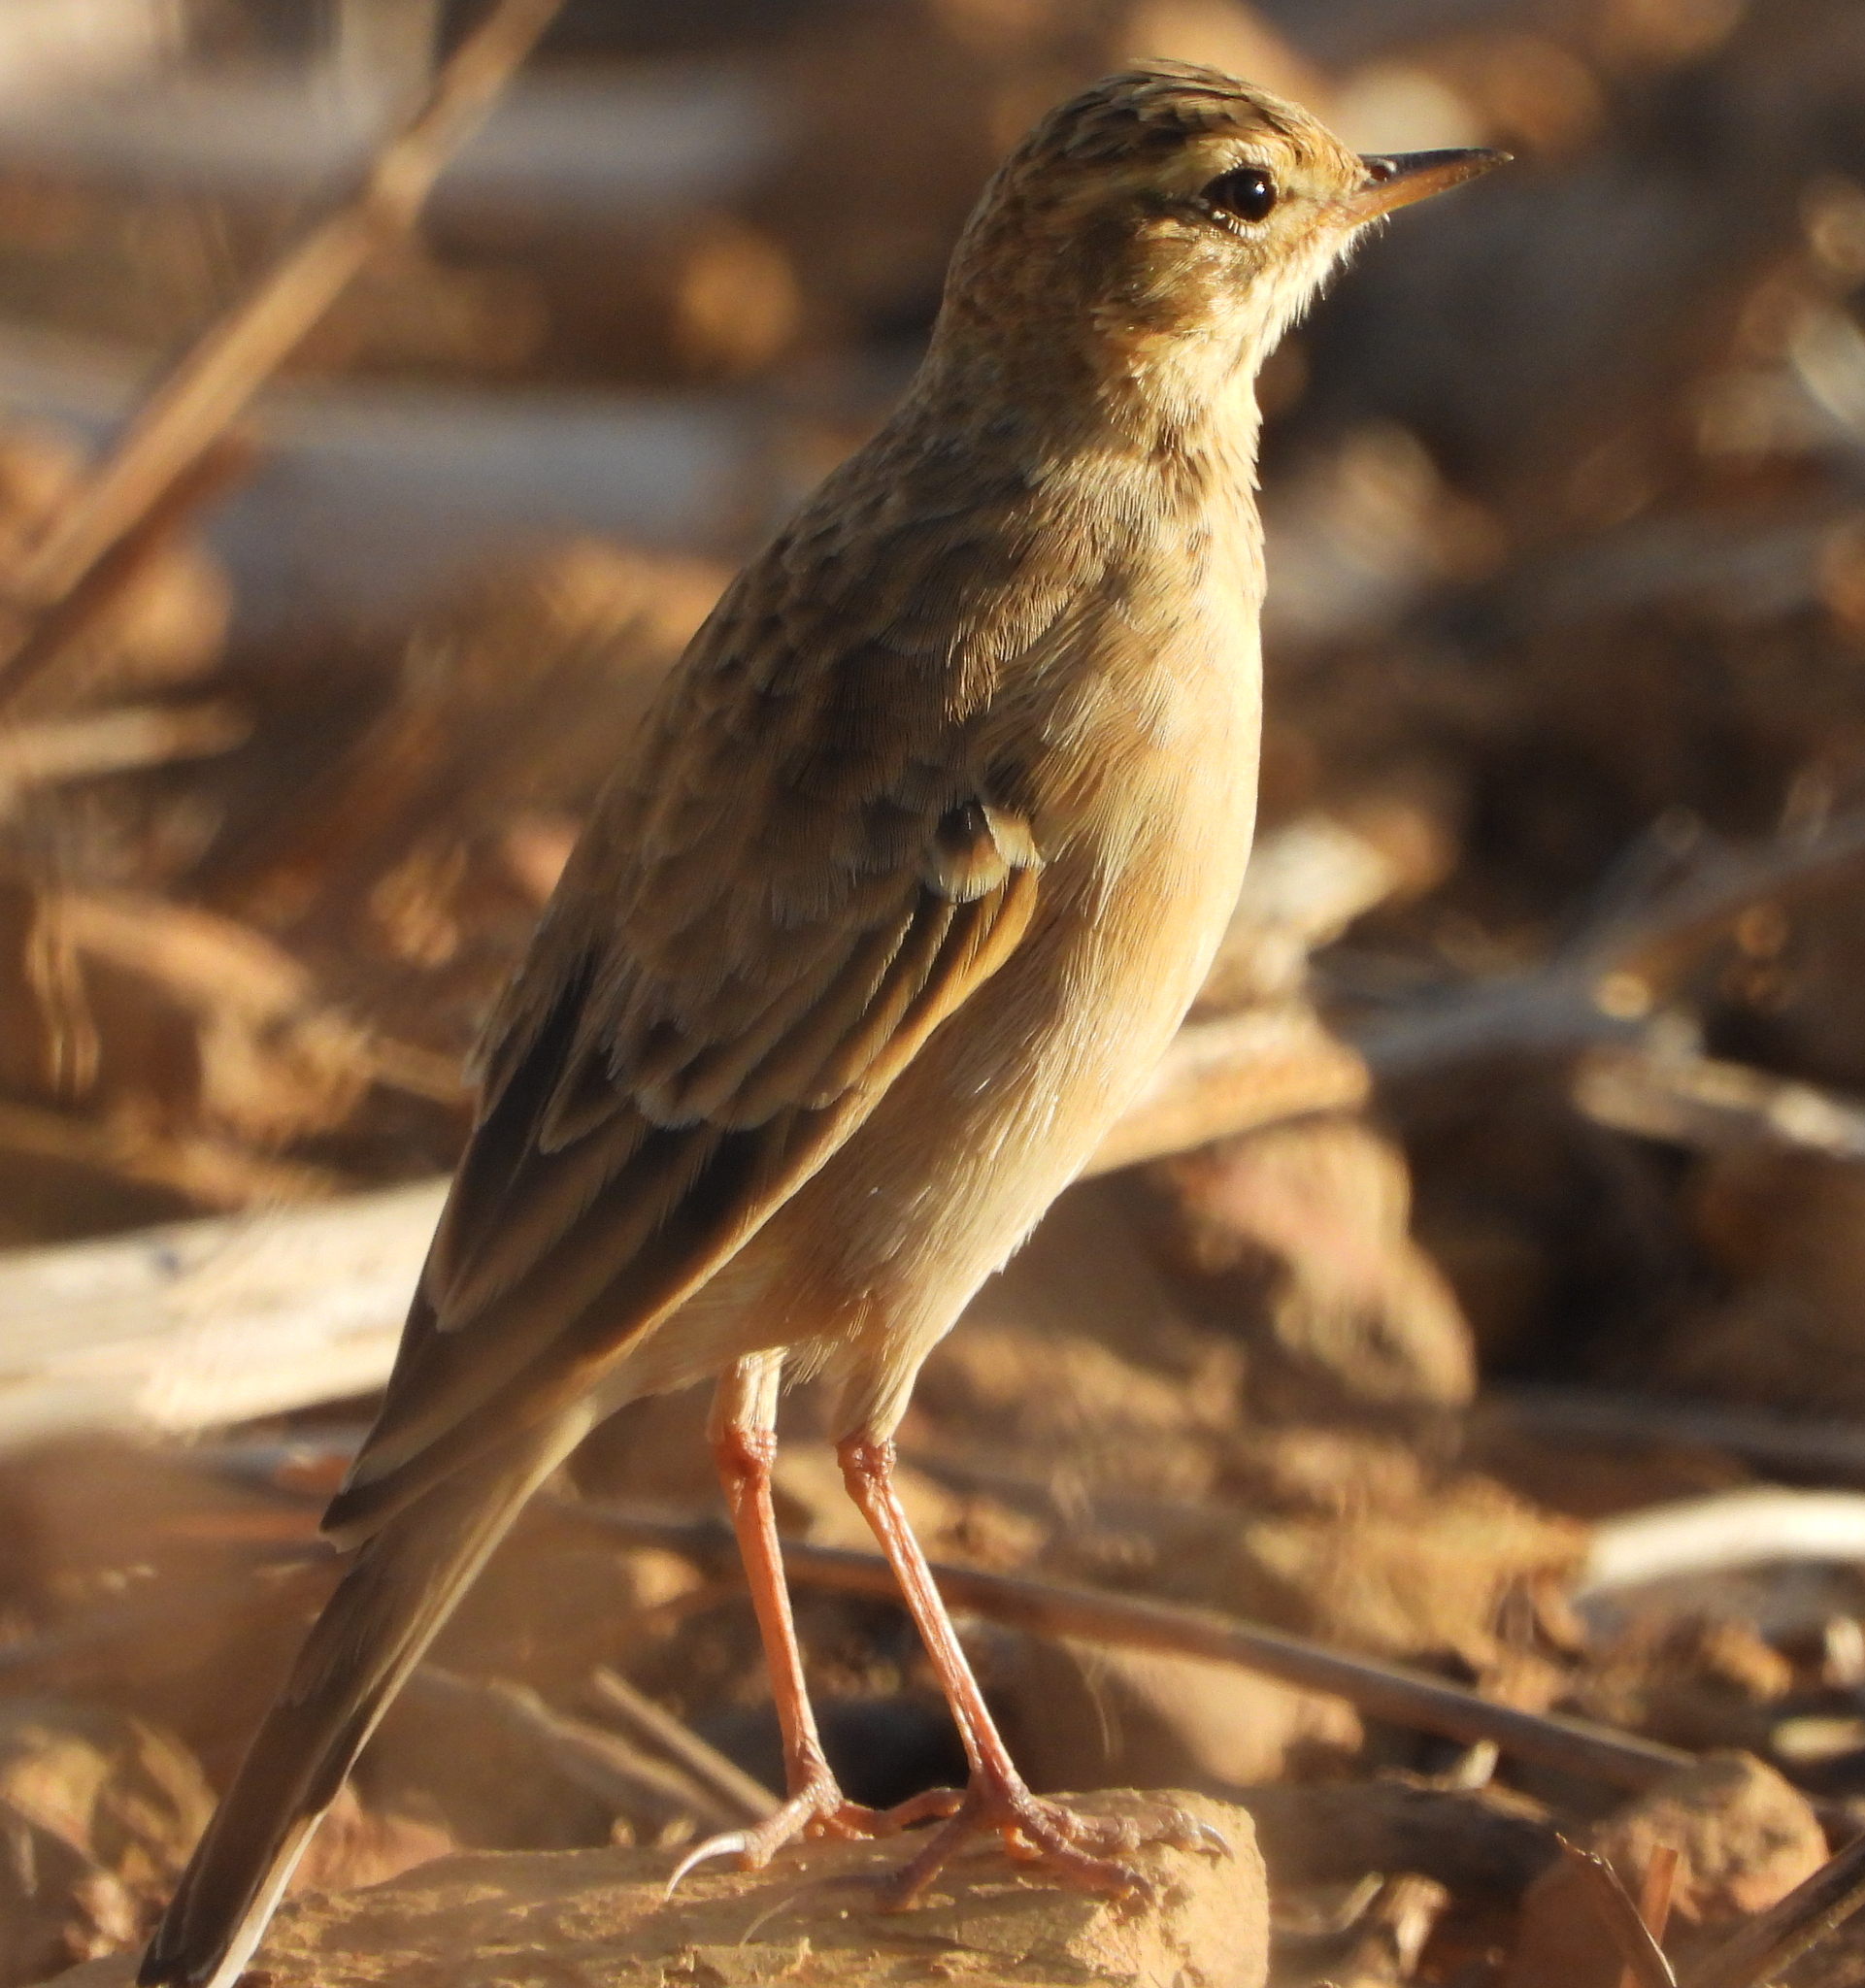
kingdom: Animalia
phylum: Chordata
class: Aves
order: Passeriformes
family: Motacillidae
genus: Anthus
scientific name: Anthus cinnamomeus
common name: African pipit
